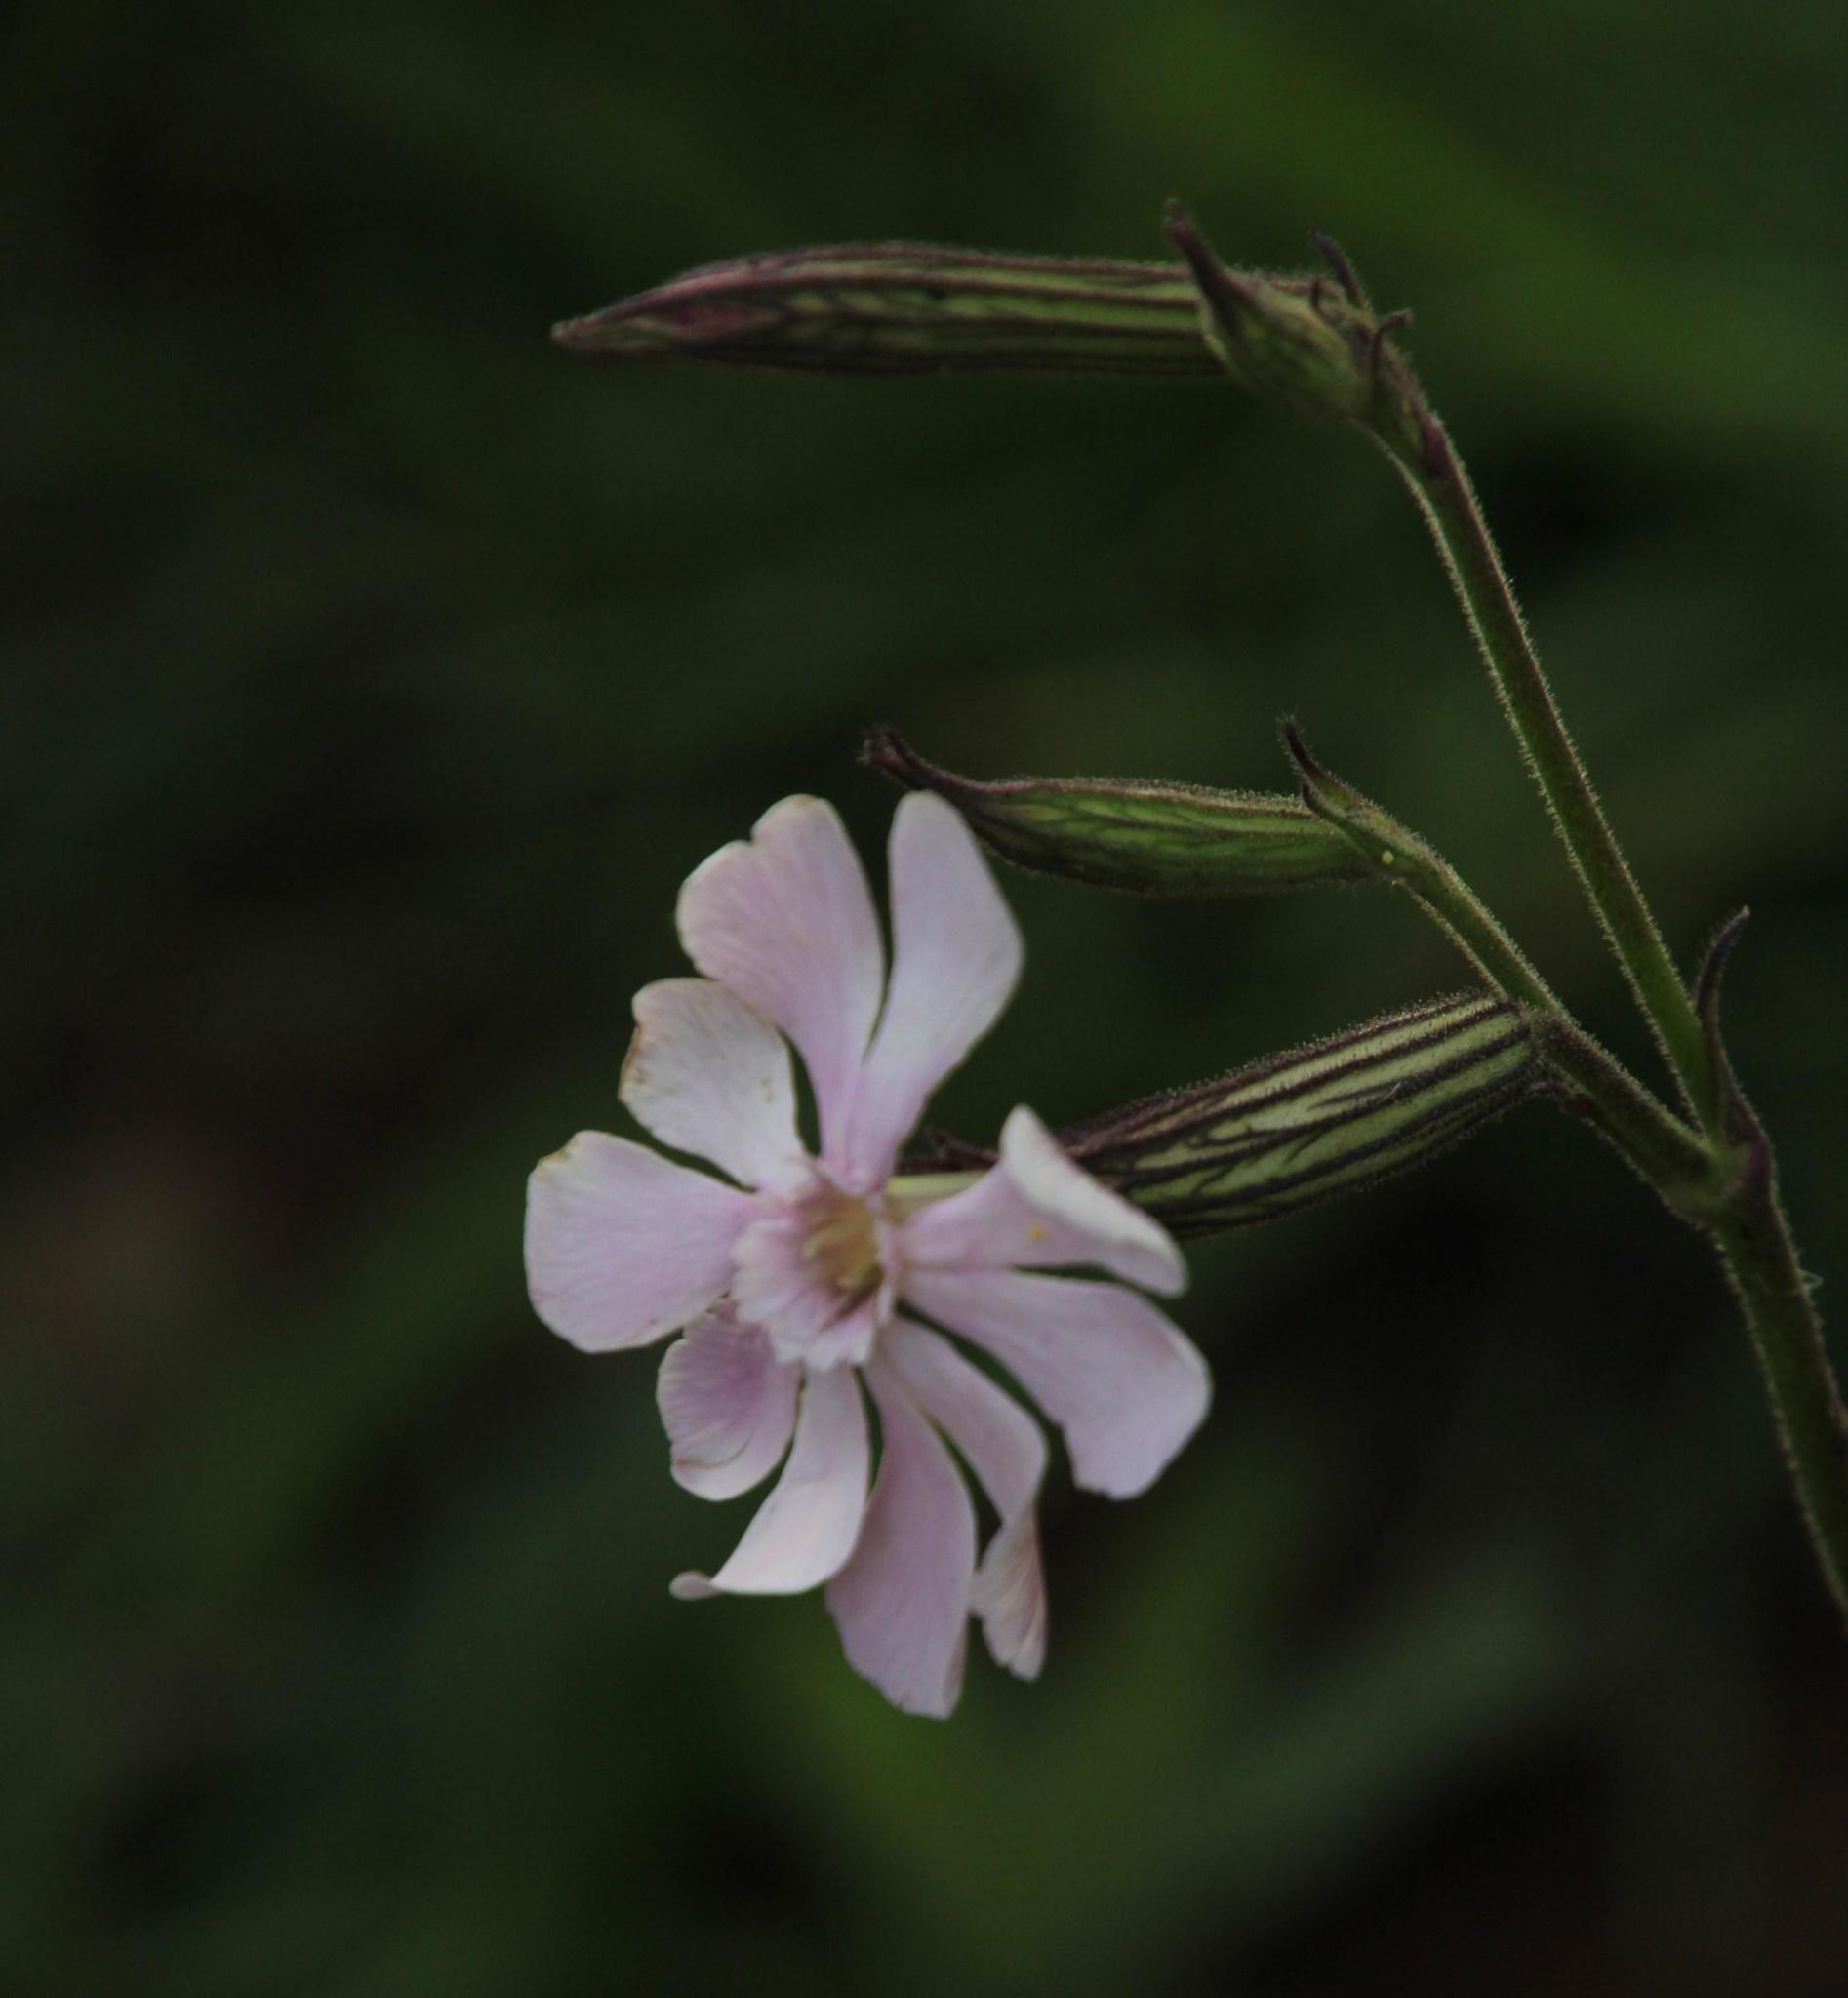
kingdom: Plantae
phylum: Tracheophyta
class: Magnoliopsida
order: Caryophyllales
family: Caryophyllaceae
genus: Silene
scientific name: Silene undulata
